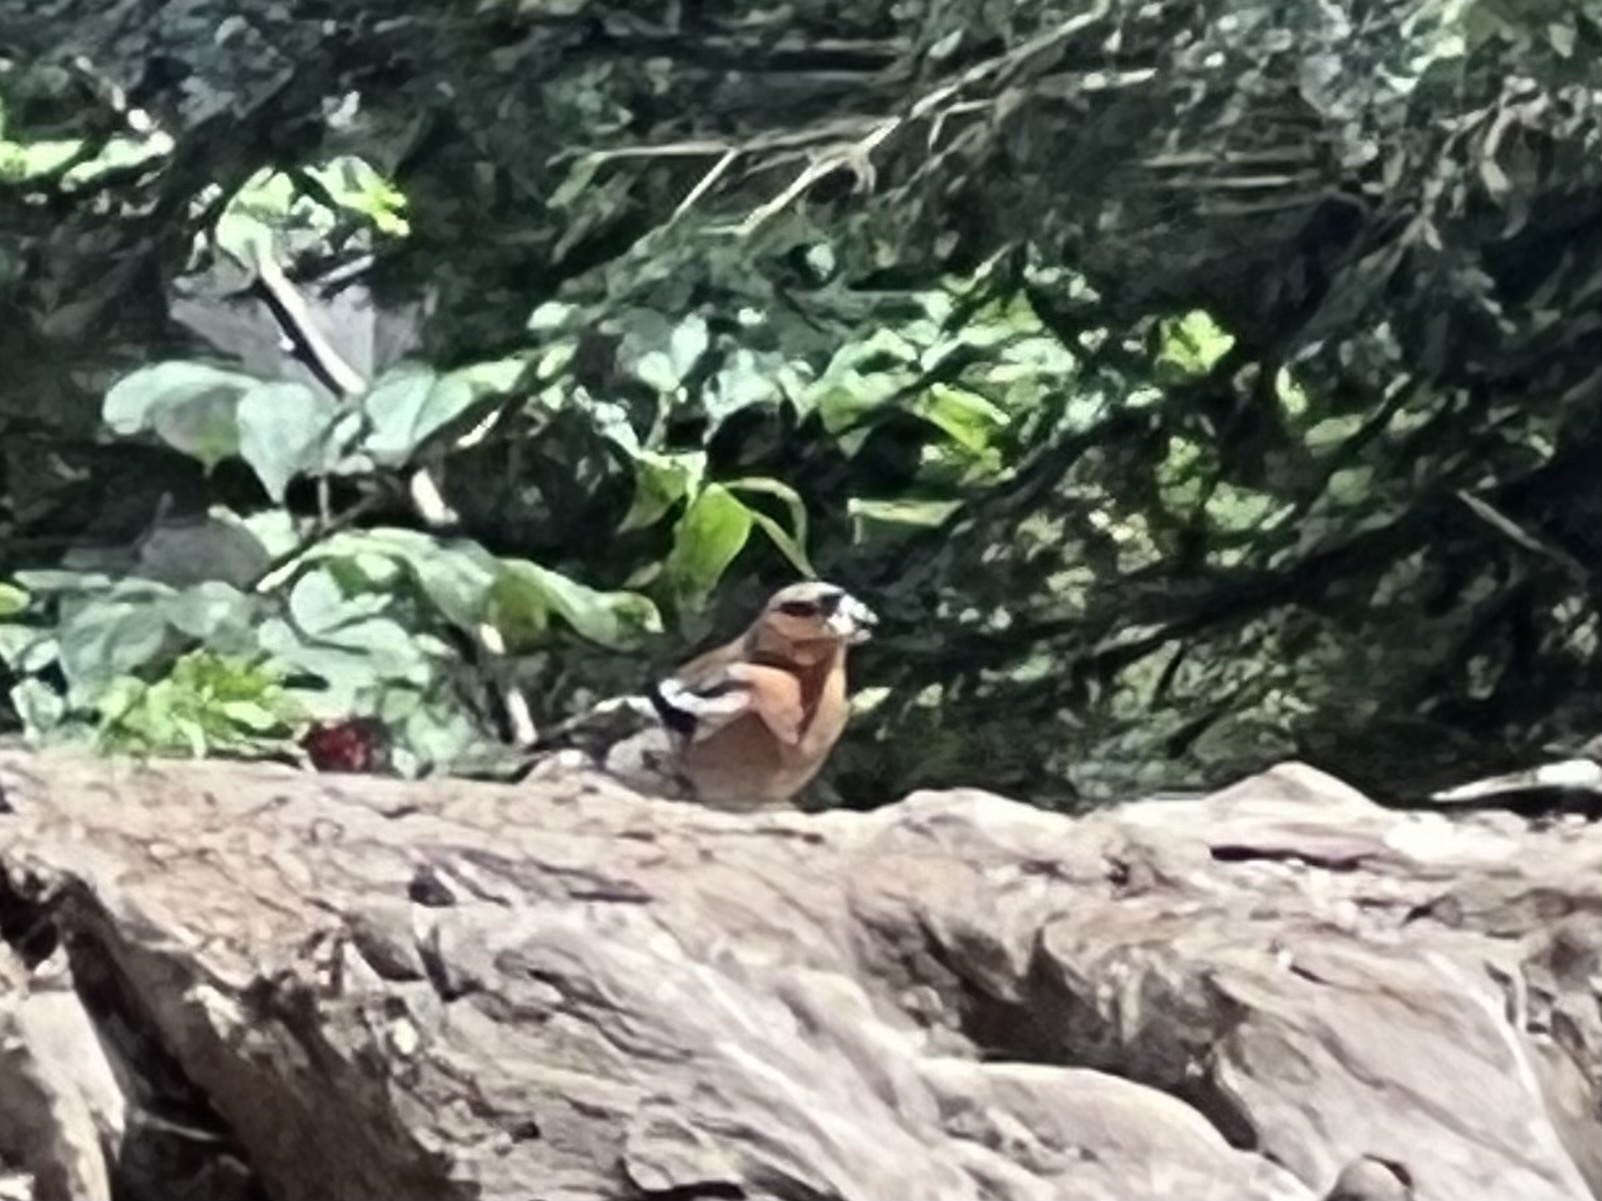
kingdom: Animalia
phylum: Chordata
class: Aves
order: Passeriformes
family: Fringillidae
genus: Fringilla
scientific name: Fringilla coelebs
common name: Common chaffinch
